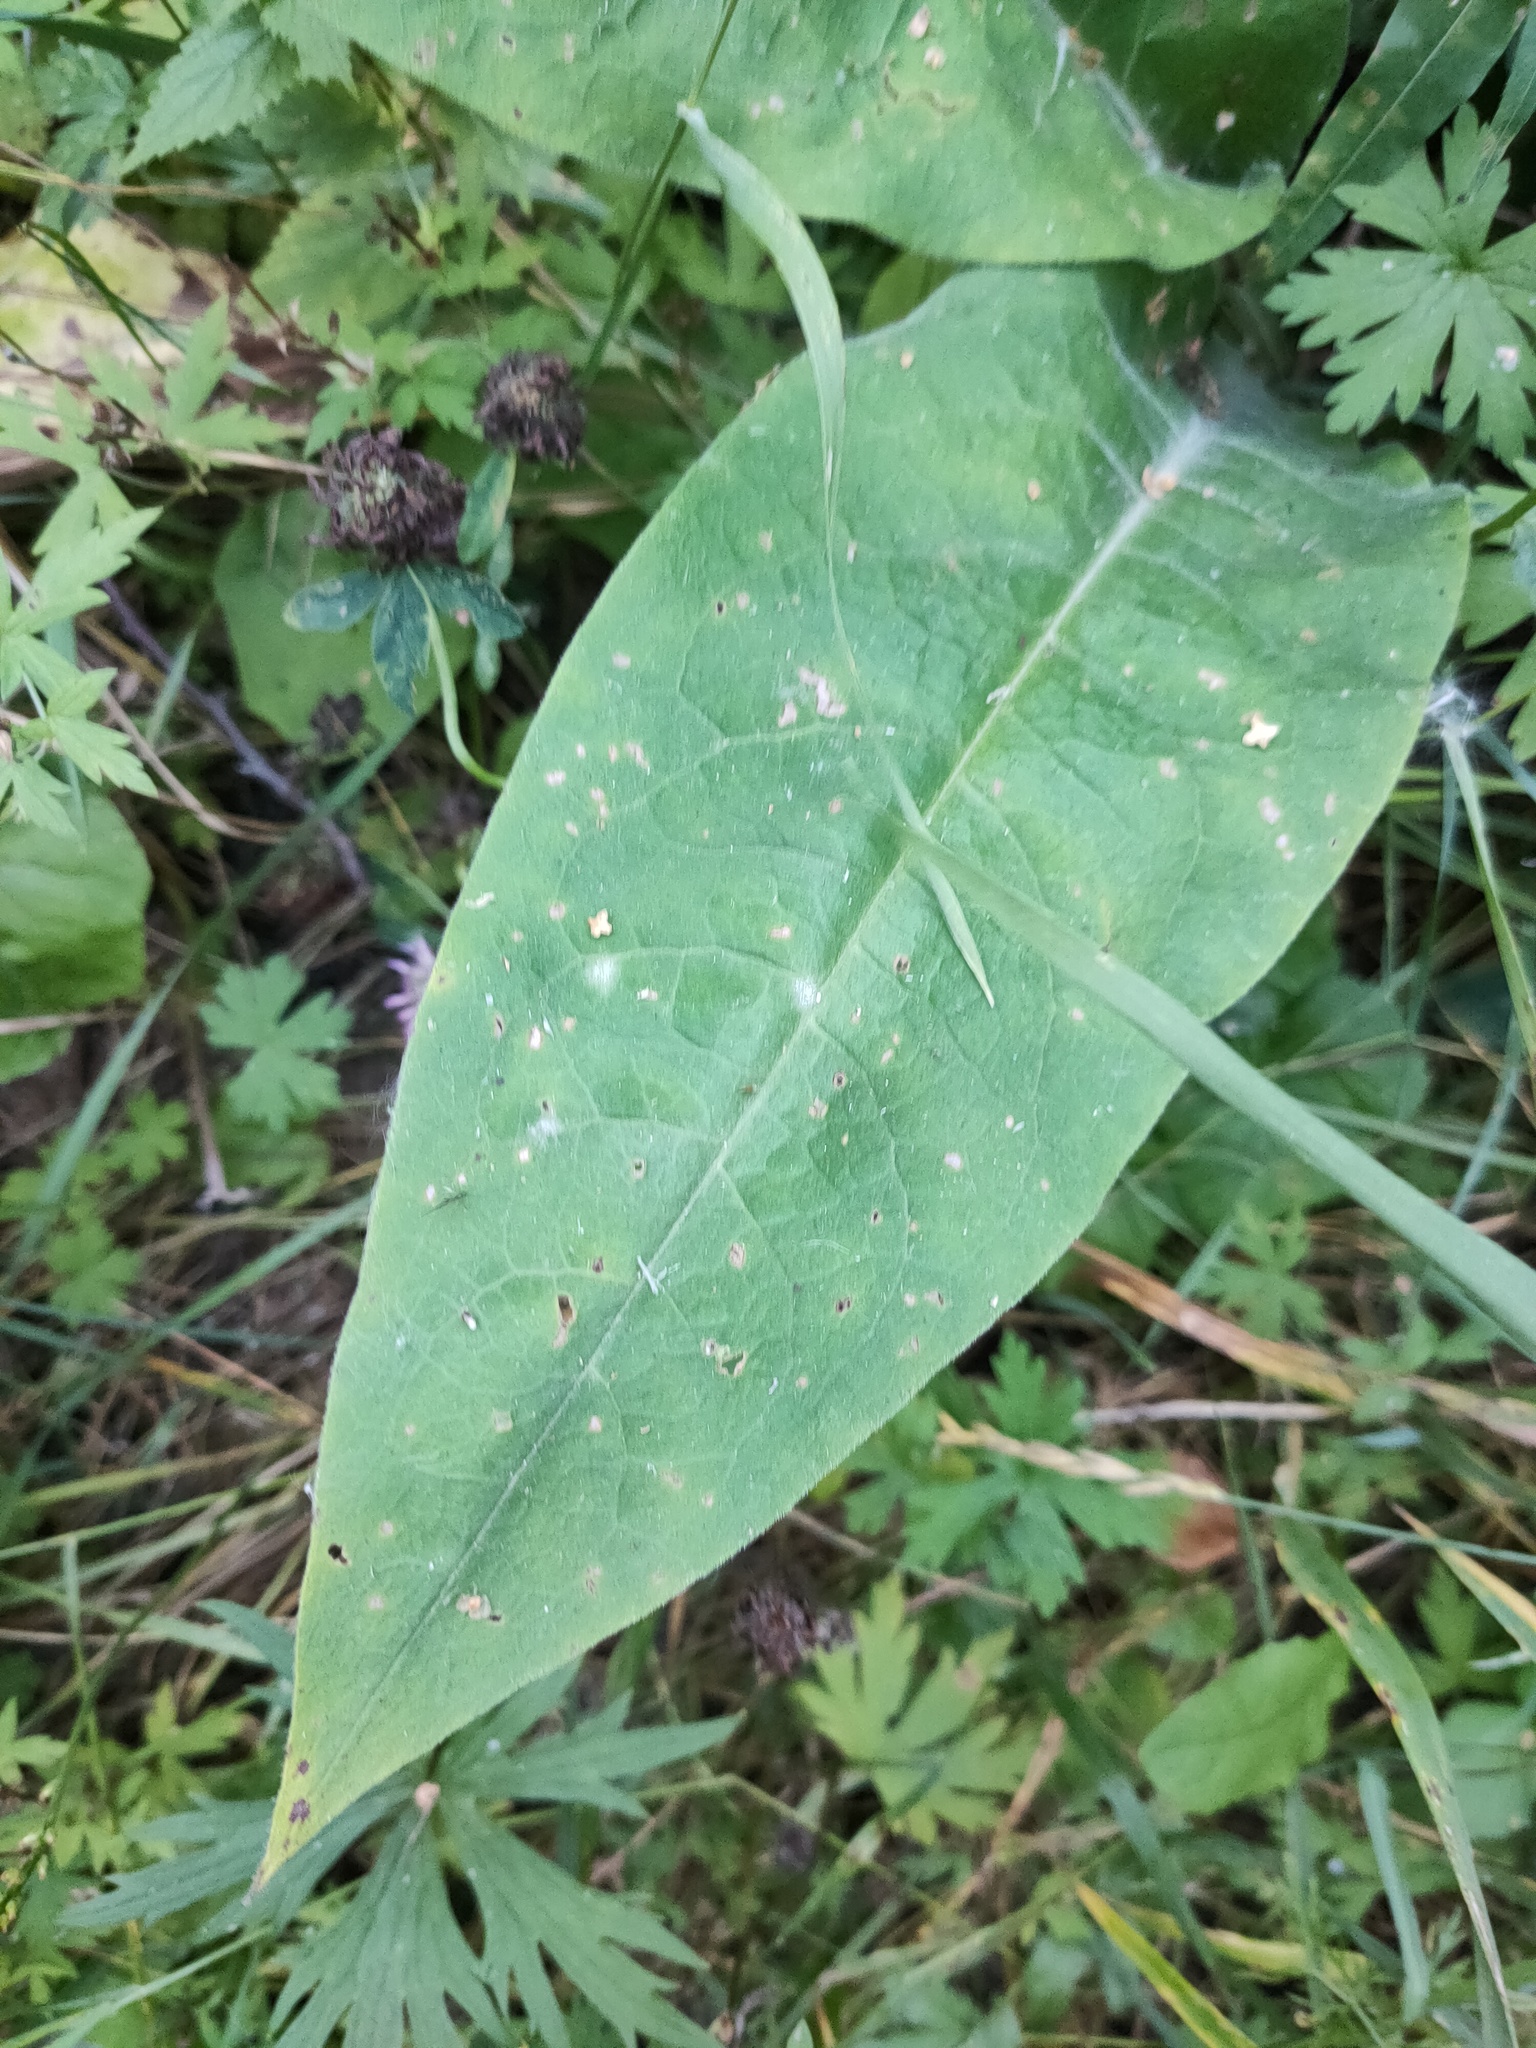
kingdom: Plantae
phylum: Tracheophyta
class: Magnoliopsida
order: Boraginales
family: Boraginaceae
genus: Pulmonaria
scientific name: Pulmonaria mollis
